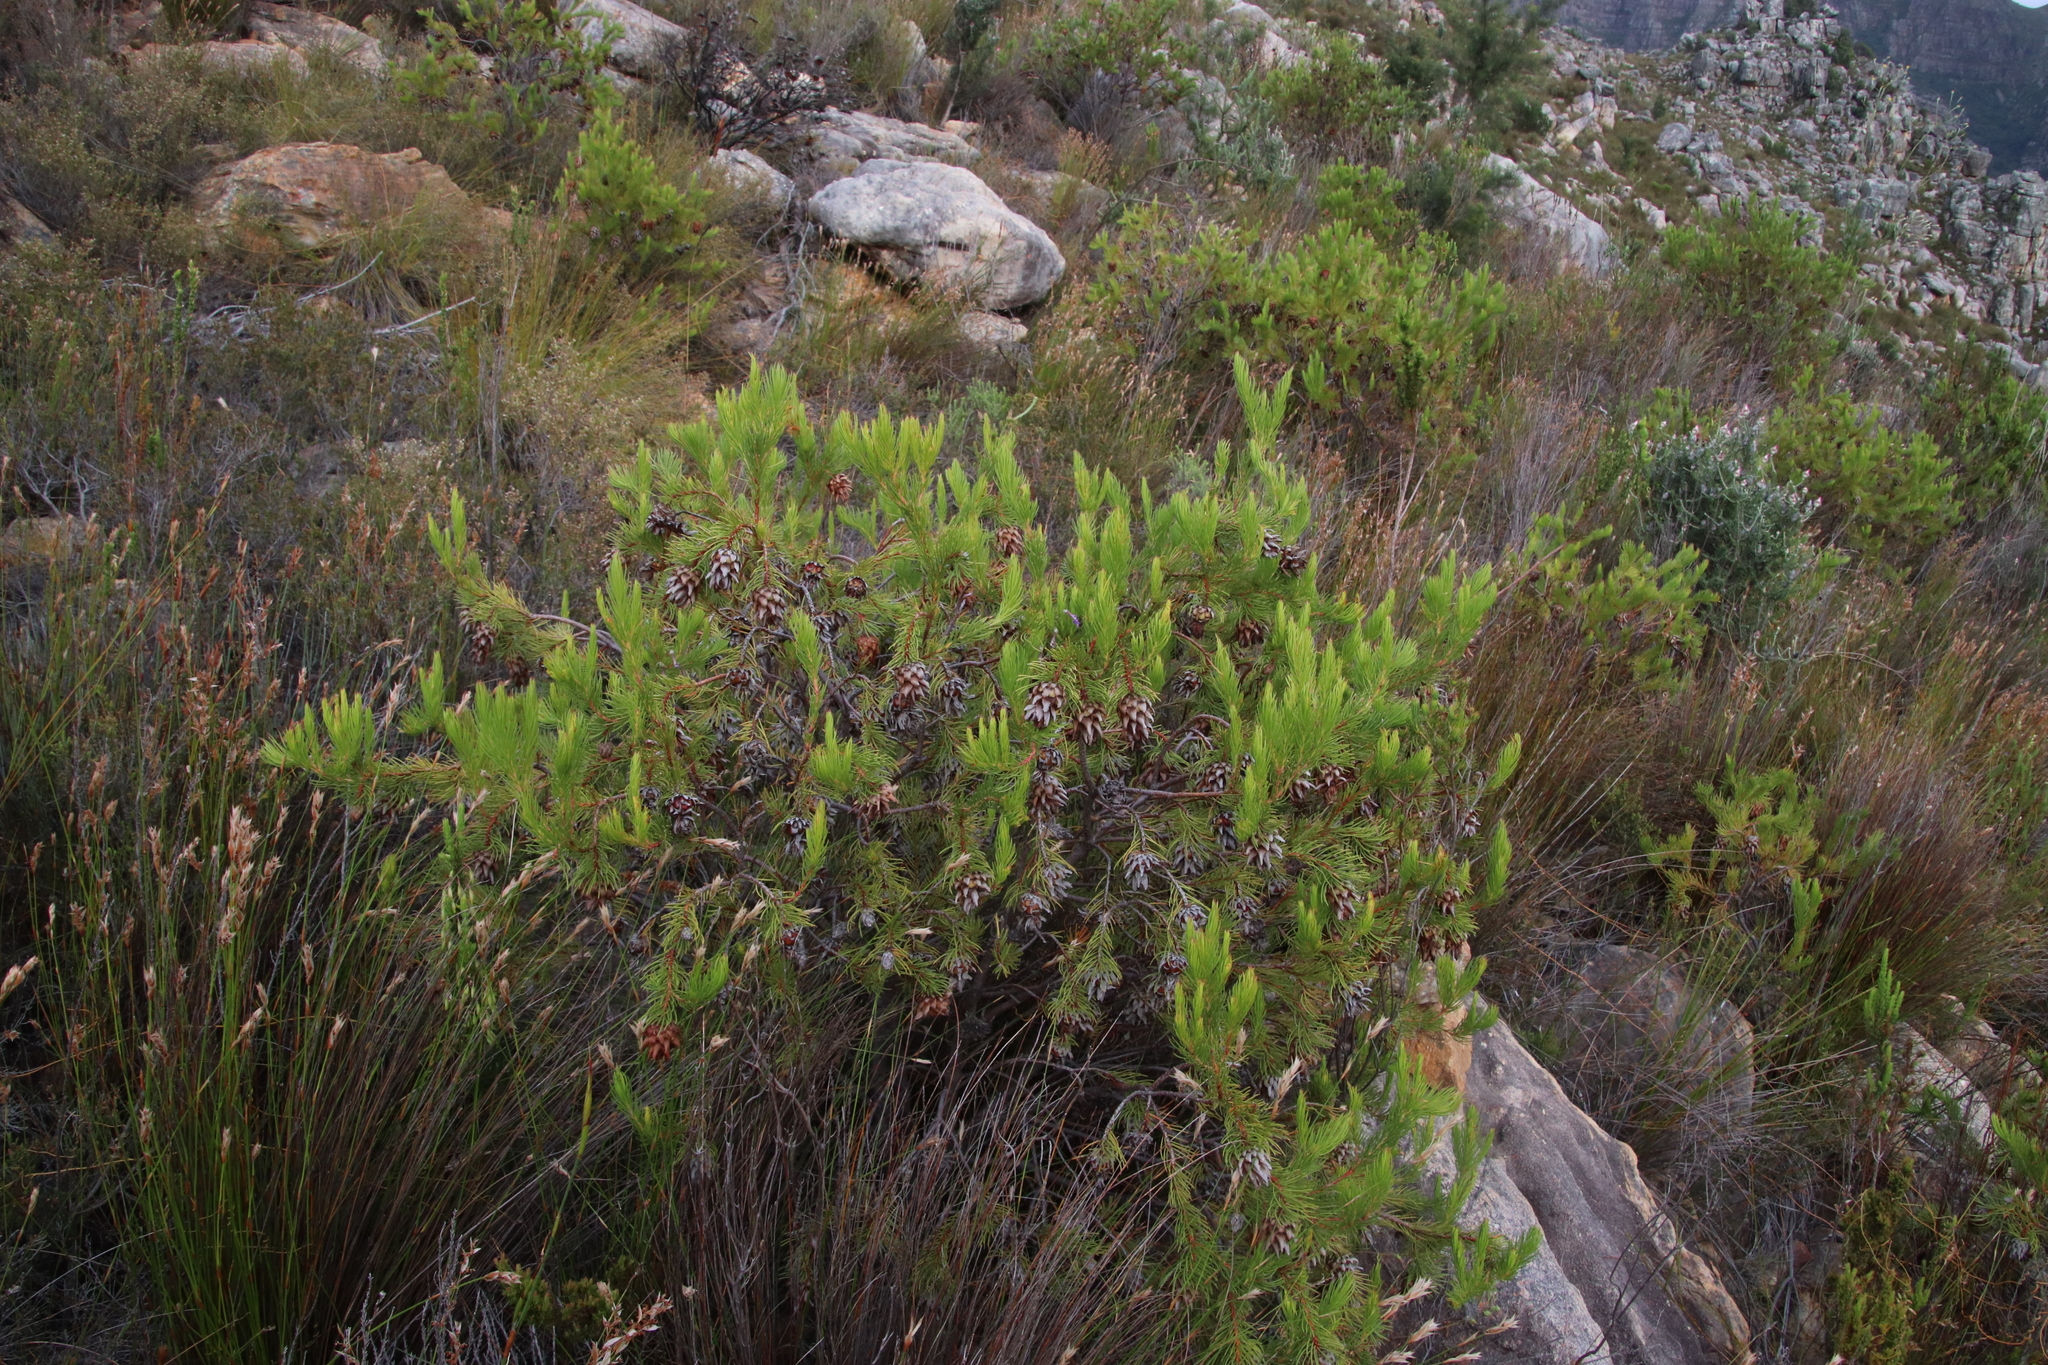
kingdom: Plantae
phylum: Tracheophyta
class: Magnoliopsida
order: Proteales
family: Proteaceae
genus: Protea
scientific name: Protea nana
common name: Mountain rose
